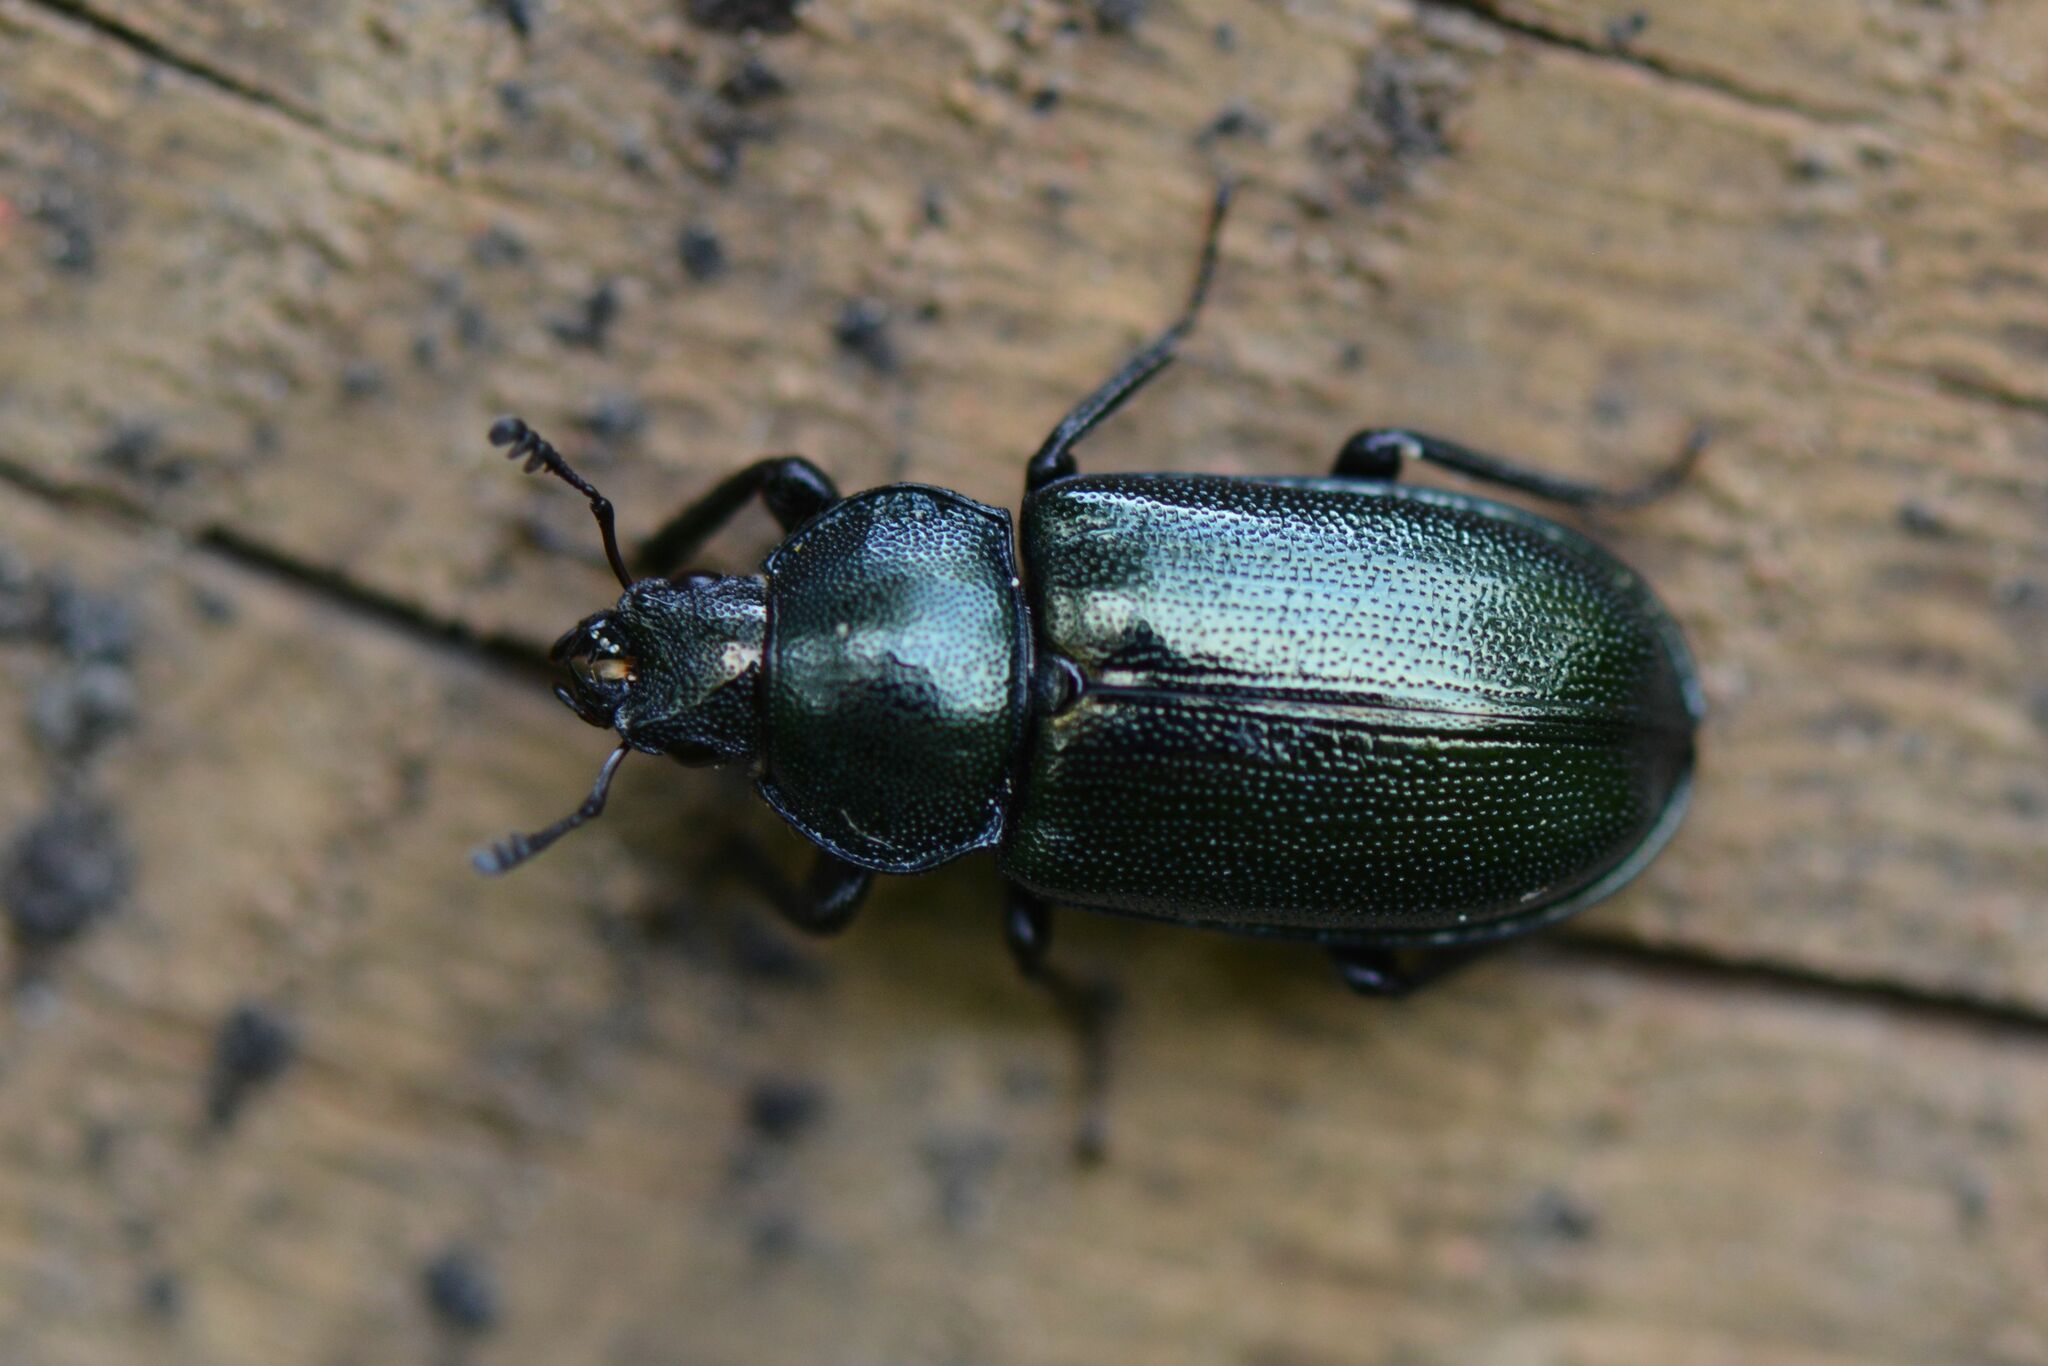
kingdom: Animalia
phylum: Arthropoda
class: Insecta
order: Coleoptera
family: Lucanidae
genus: Platycerus
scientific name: Platycerus caraboides
